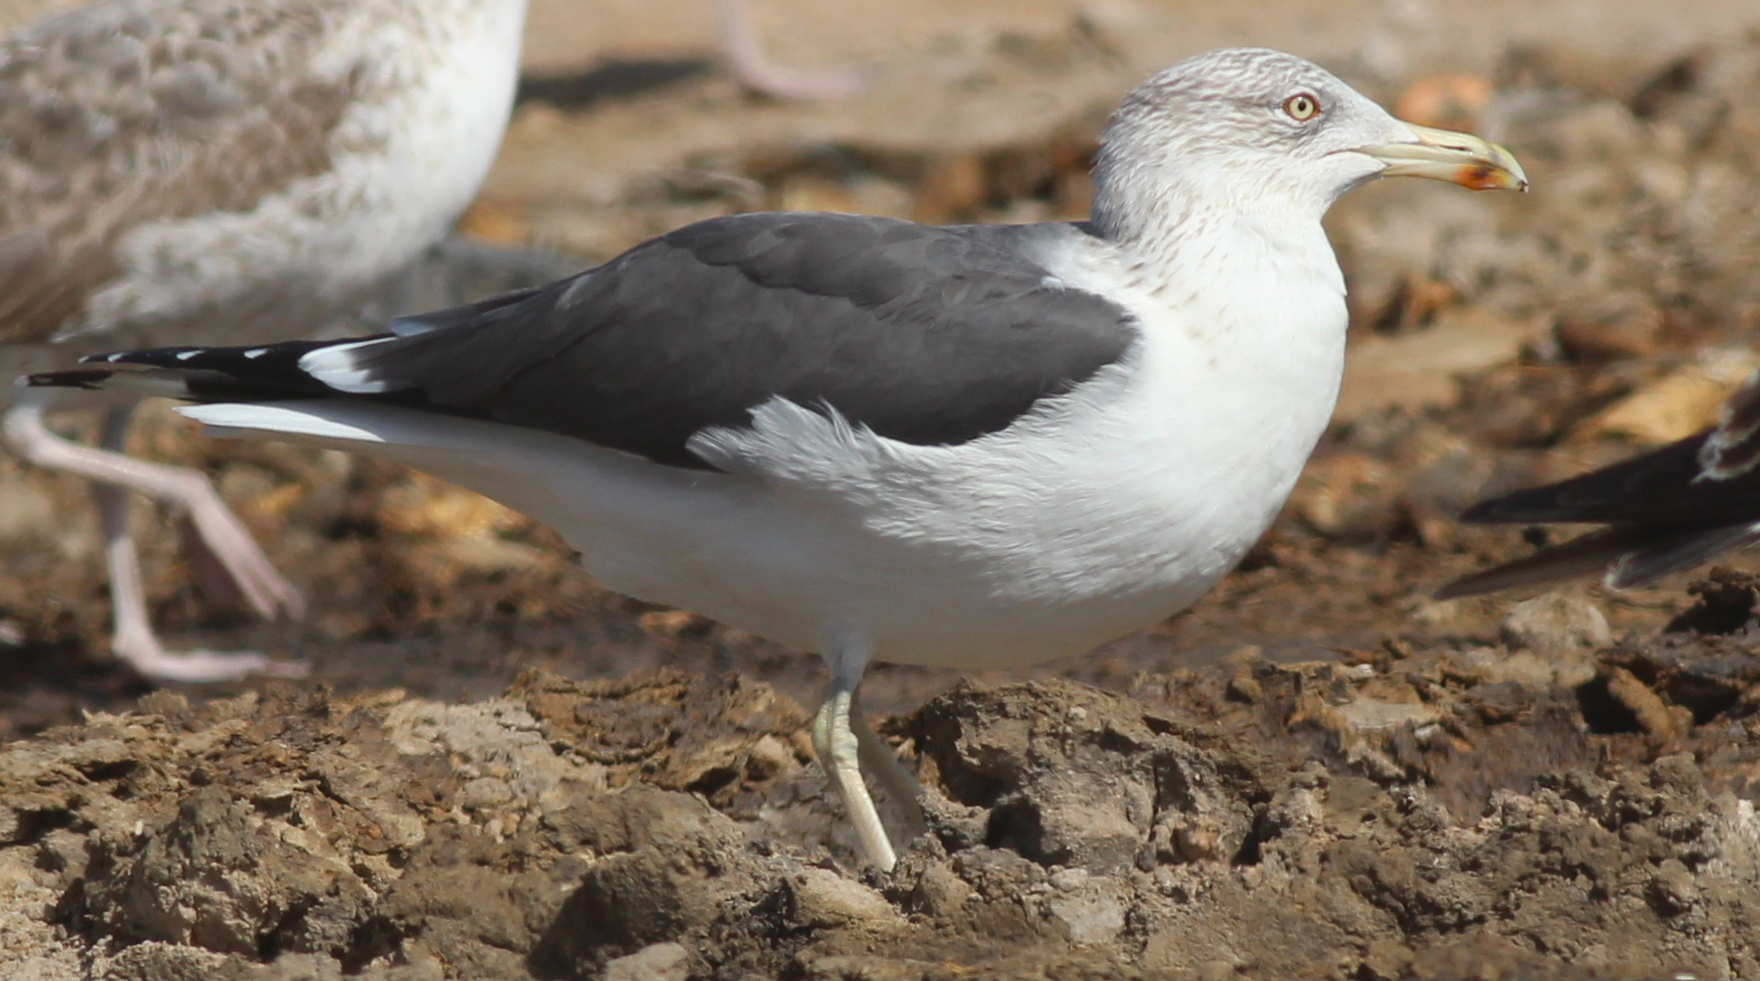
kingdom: Animalia
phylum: Chordata
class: Aves
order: Charadriiformes
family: Laridae
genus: Larus
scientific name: Larus fuscus
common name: Lesser black-backed gull
